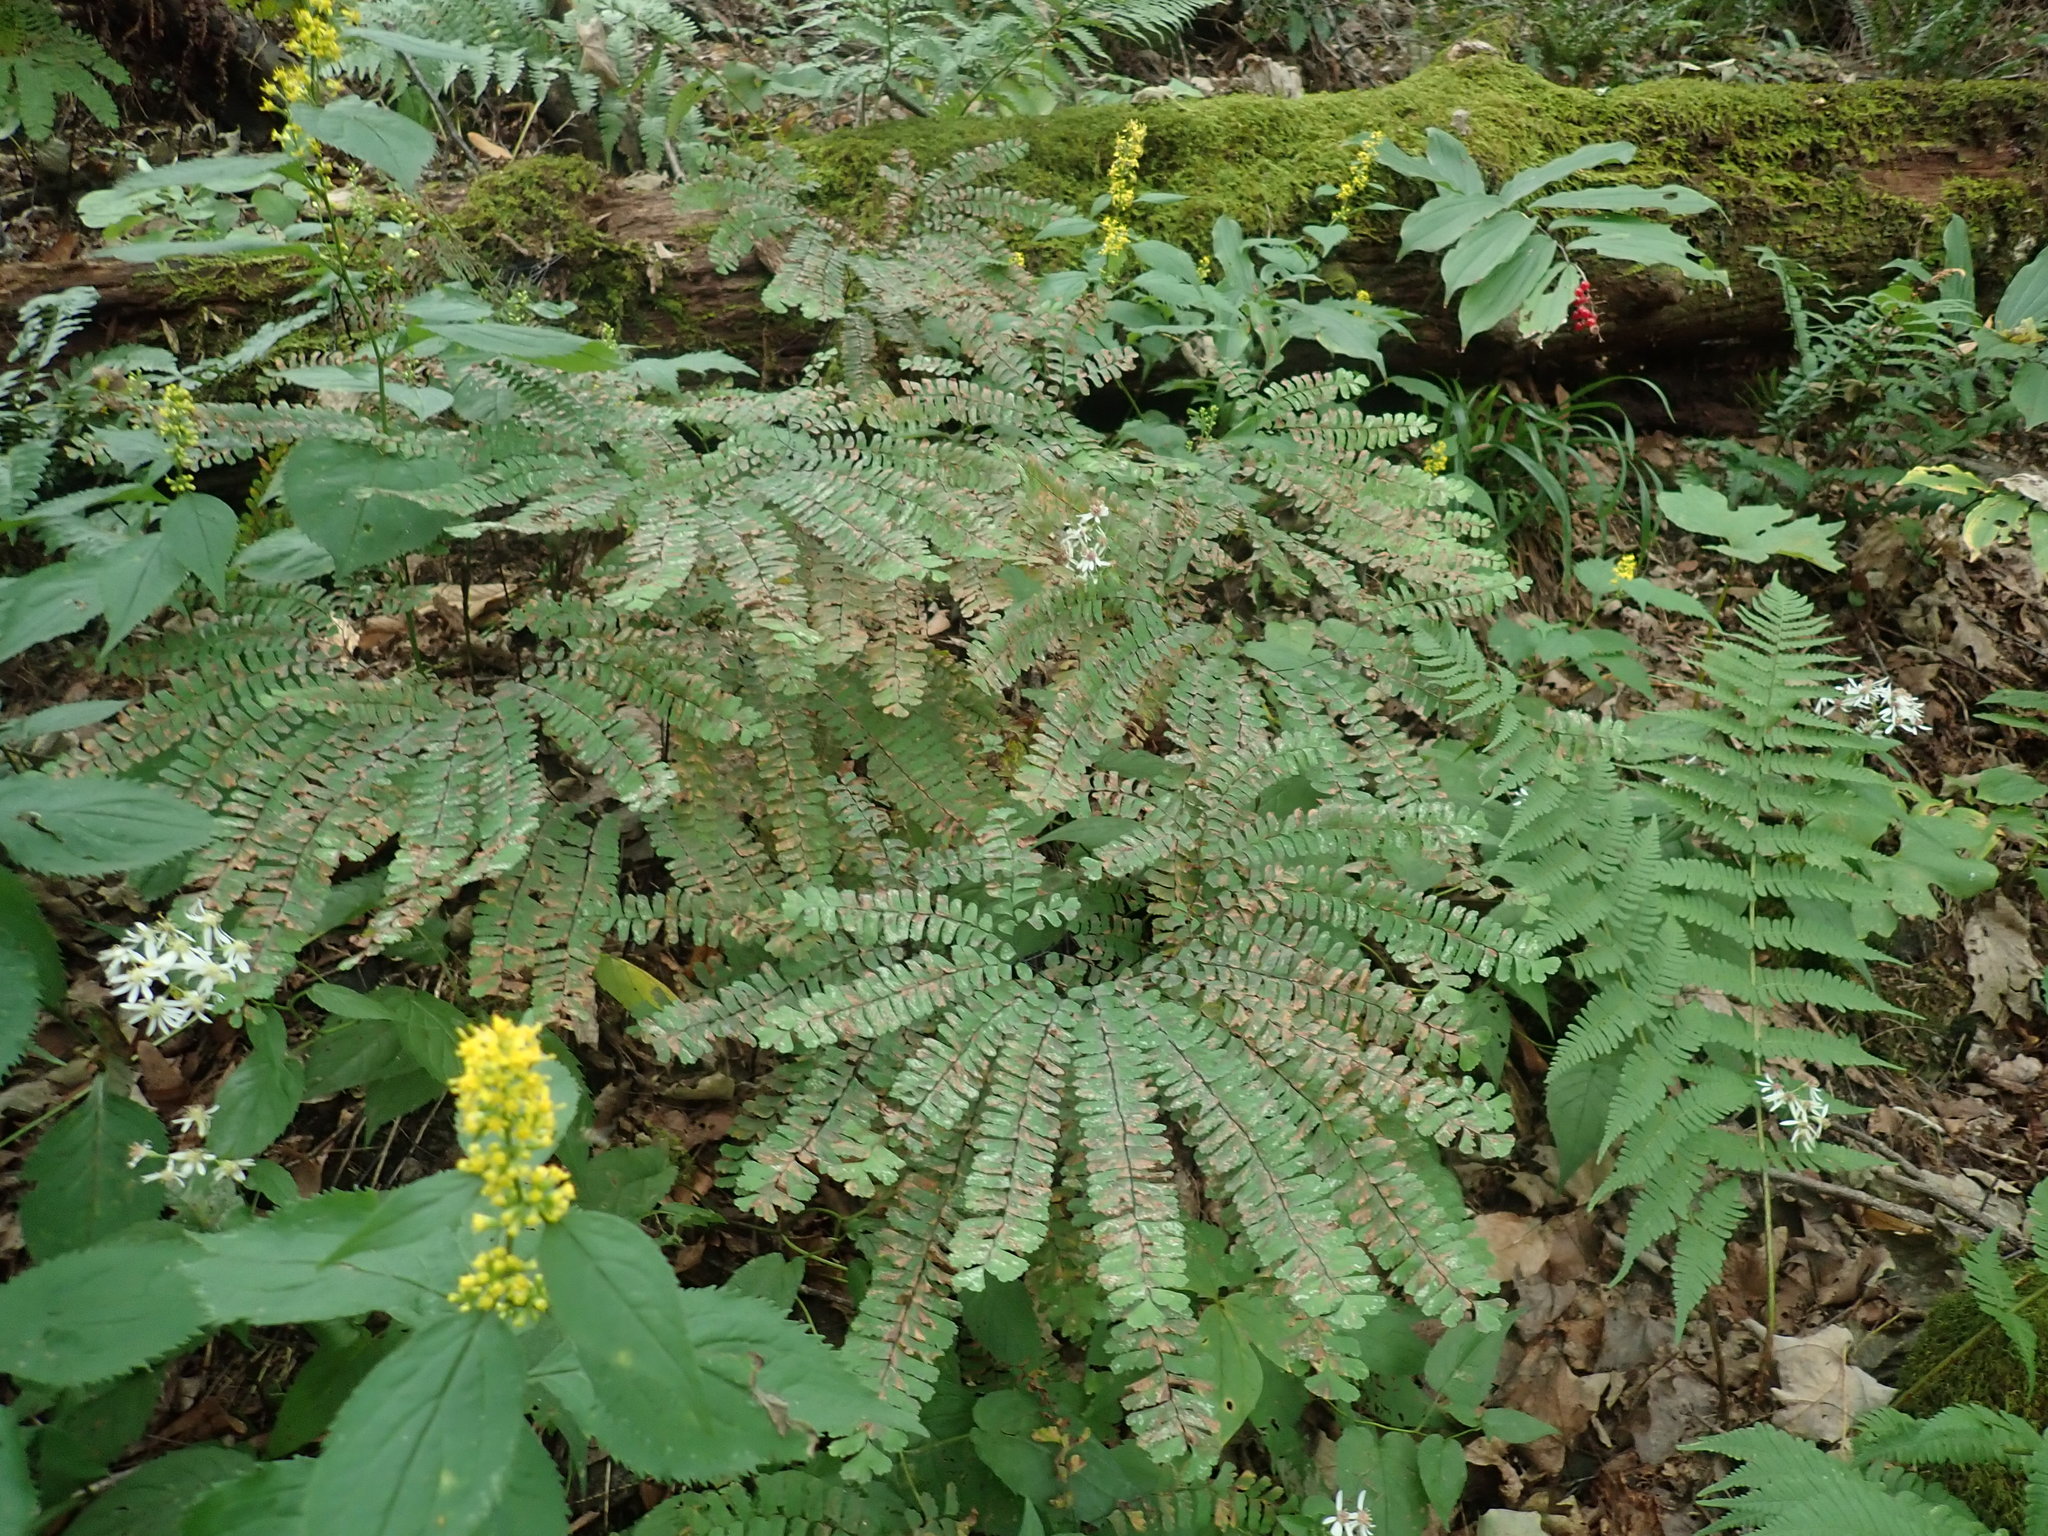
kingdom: Plantae
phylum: Tracheophyta
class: Polypodiopsida
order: Polypodiales
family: Pteridaceae
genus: Adiantum
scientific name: Adiantum pedatum
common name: Five-finger fern
